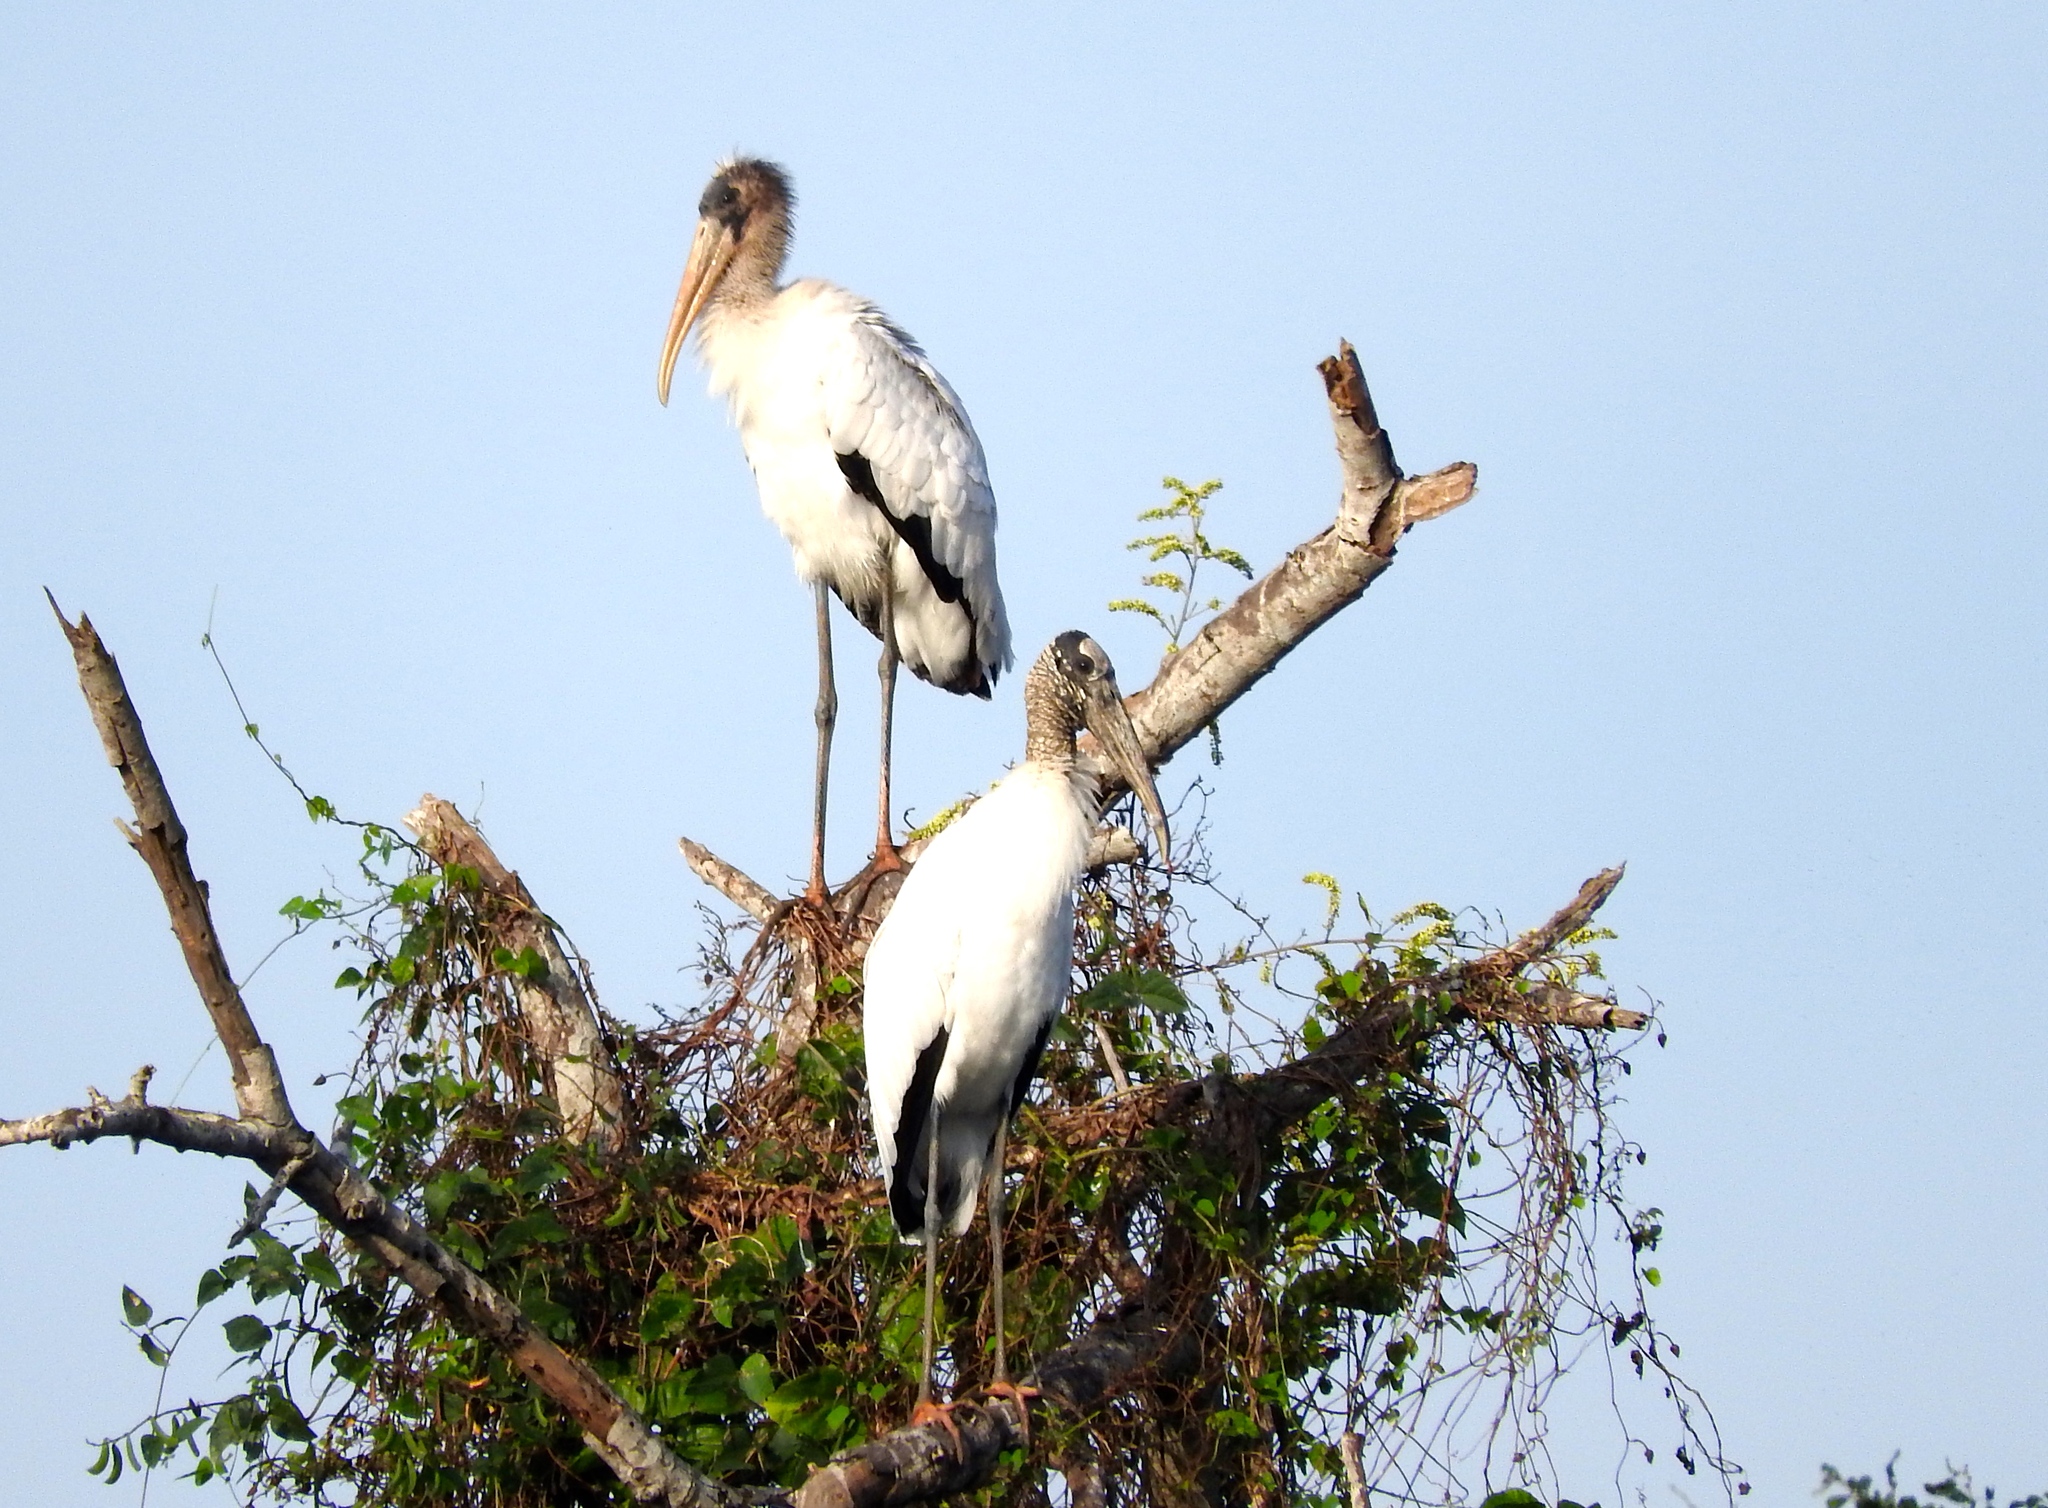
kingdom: Animalia
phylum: Chordata
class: Aves
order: Ciconiiformes
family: Ciconiidae
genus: Mycteria
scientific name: Mycteria americana
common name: Wood stork
